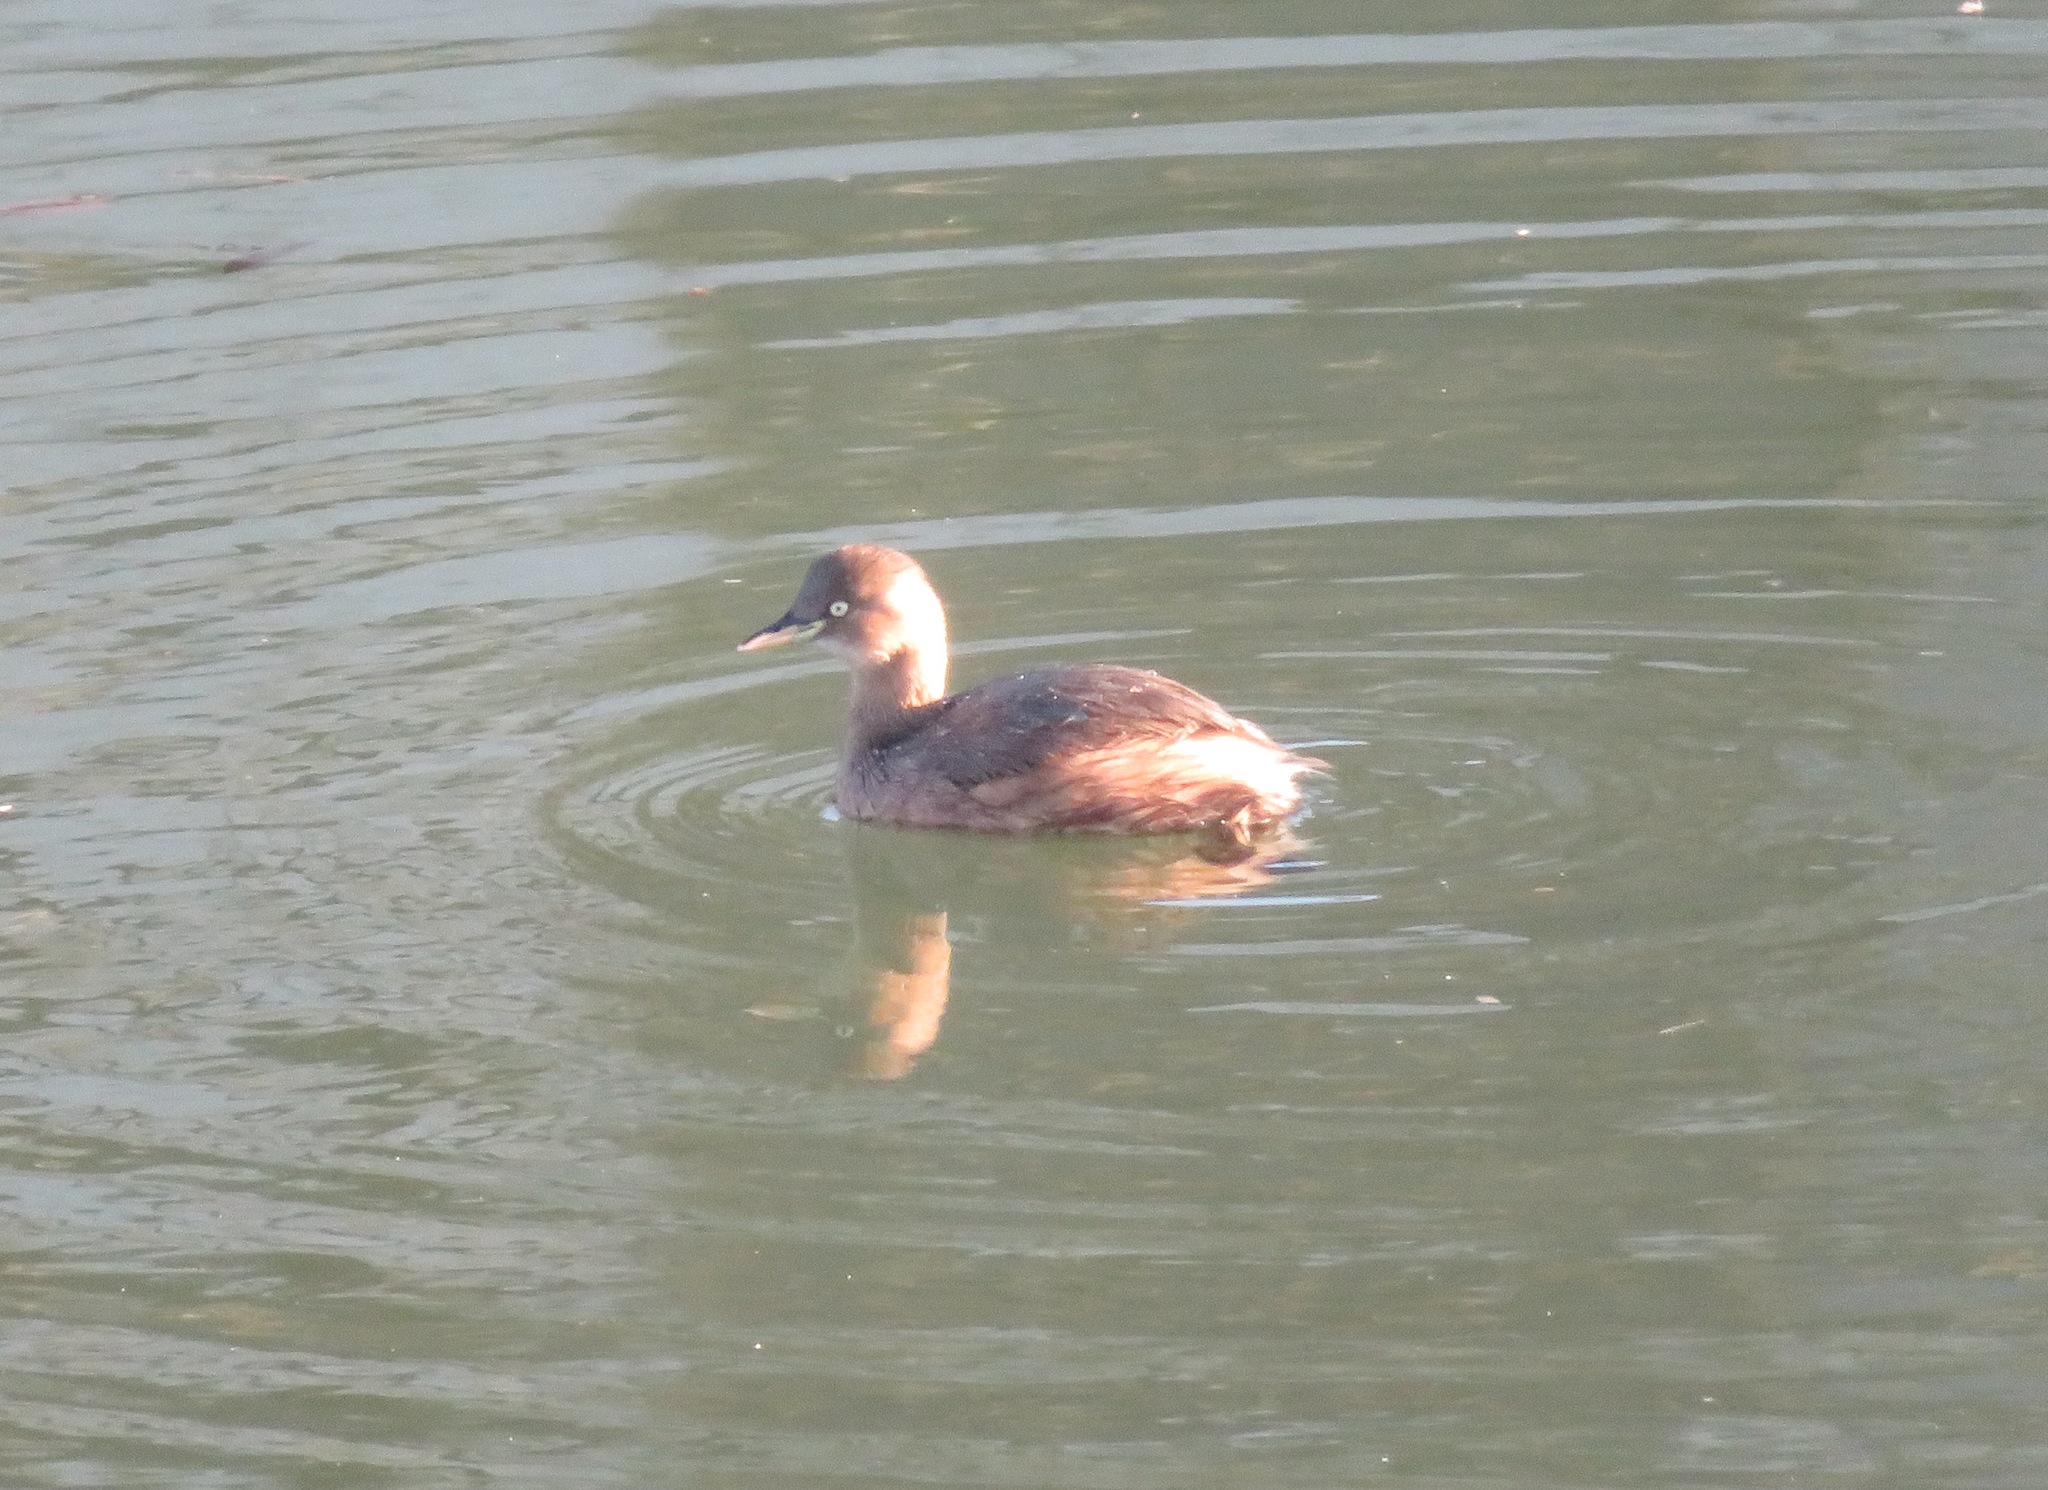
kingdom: Animalia
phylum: Chordata
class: Aves
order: Podicipediformes
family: Podicipedidae
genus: Tachybaptus
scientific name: Tachybaptus ruficollis
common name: Little grebe
